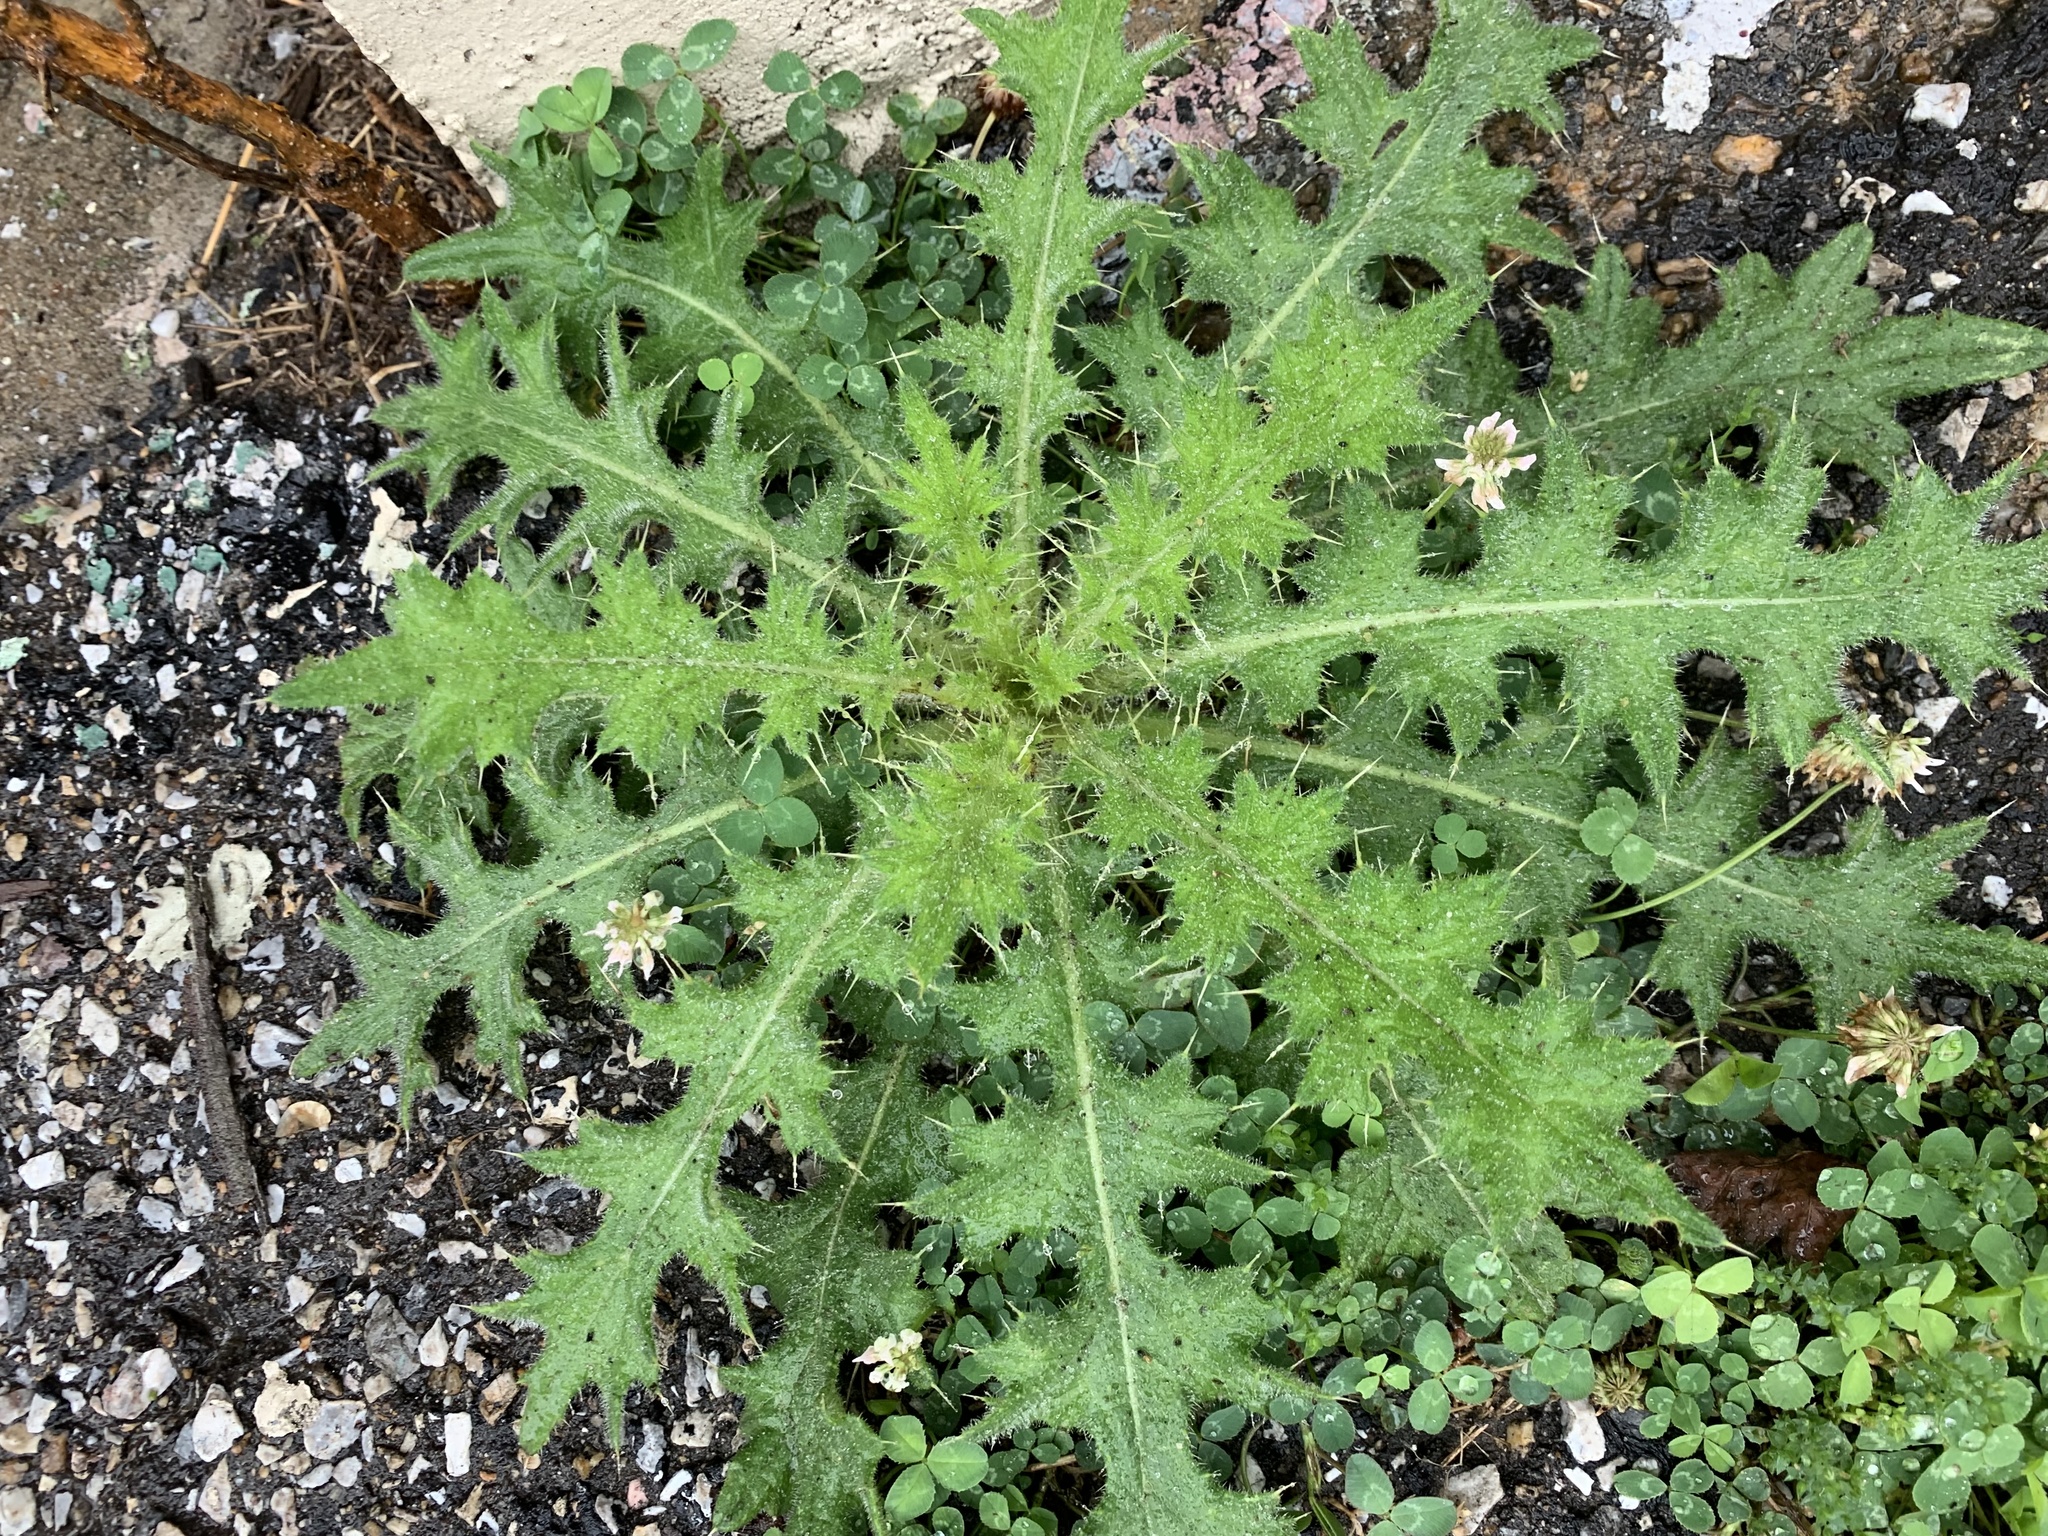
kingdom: Plantae
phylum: Tracheophyta
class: Magnoliopsida
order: Asterales
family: Asteraceae
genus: Cirsium
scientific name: Cirsium vulgare
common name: Bull thistle
